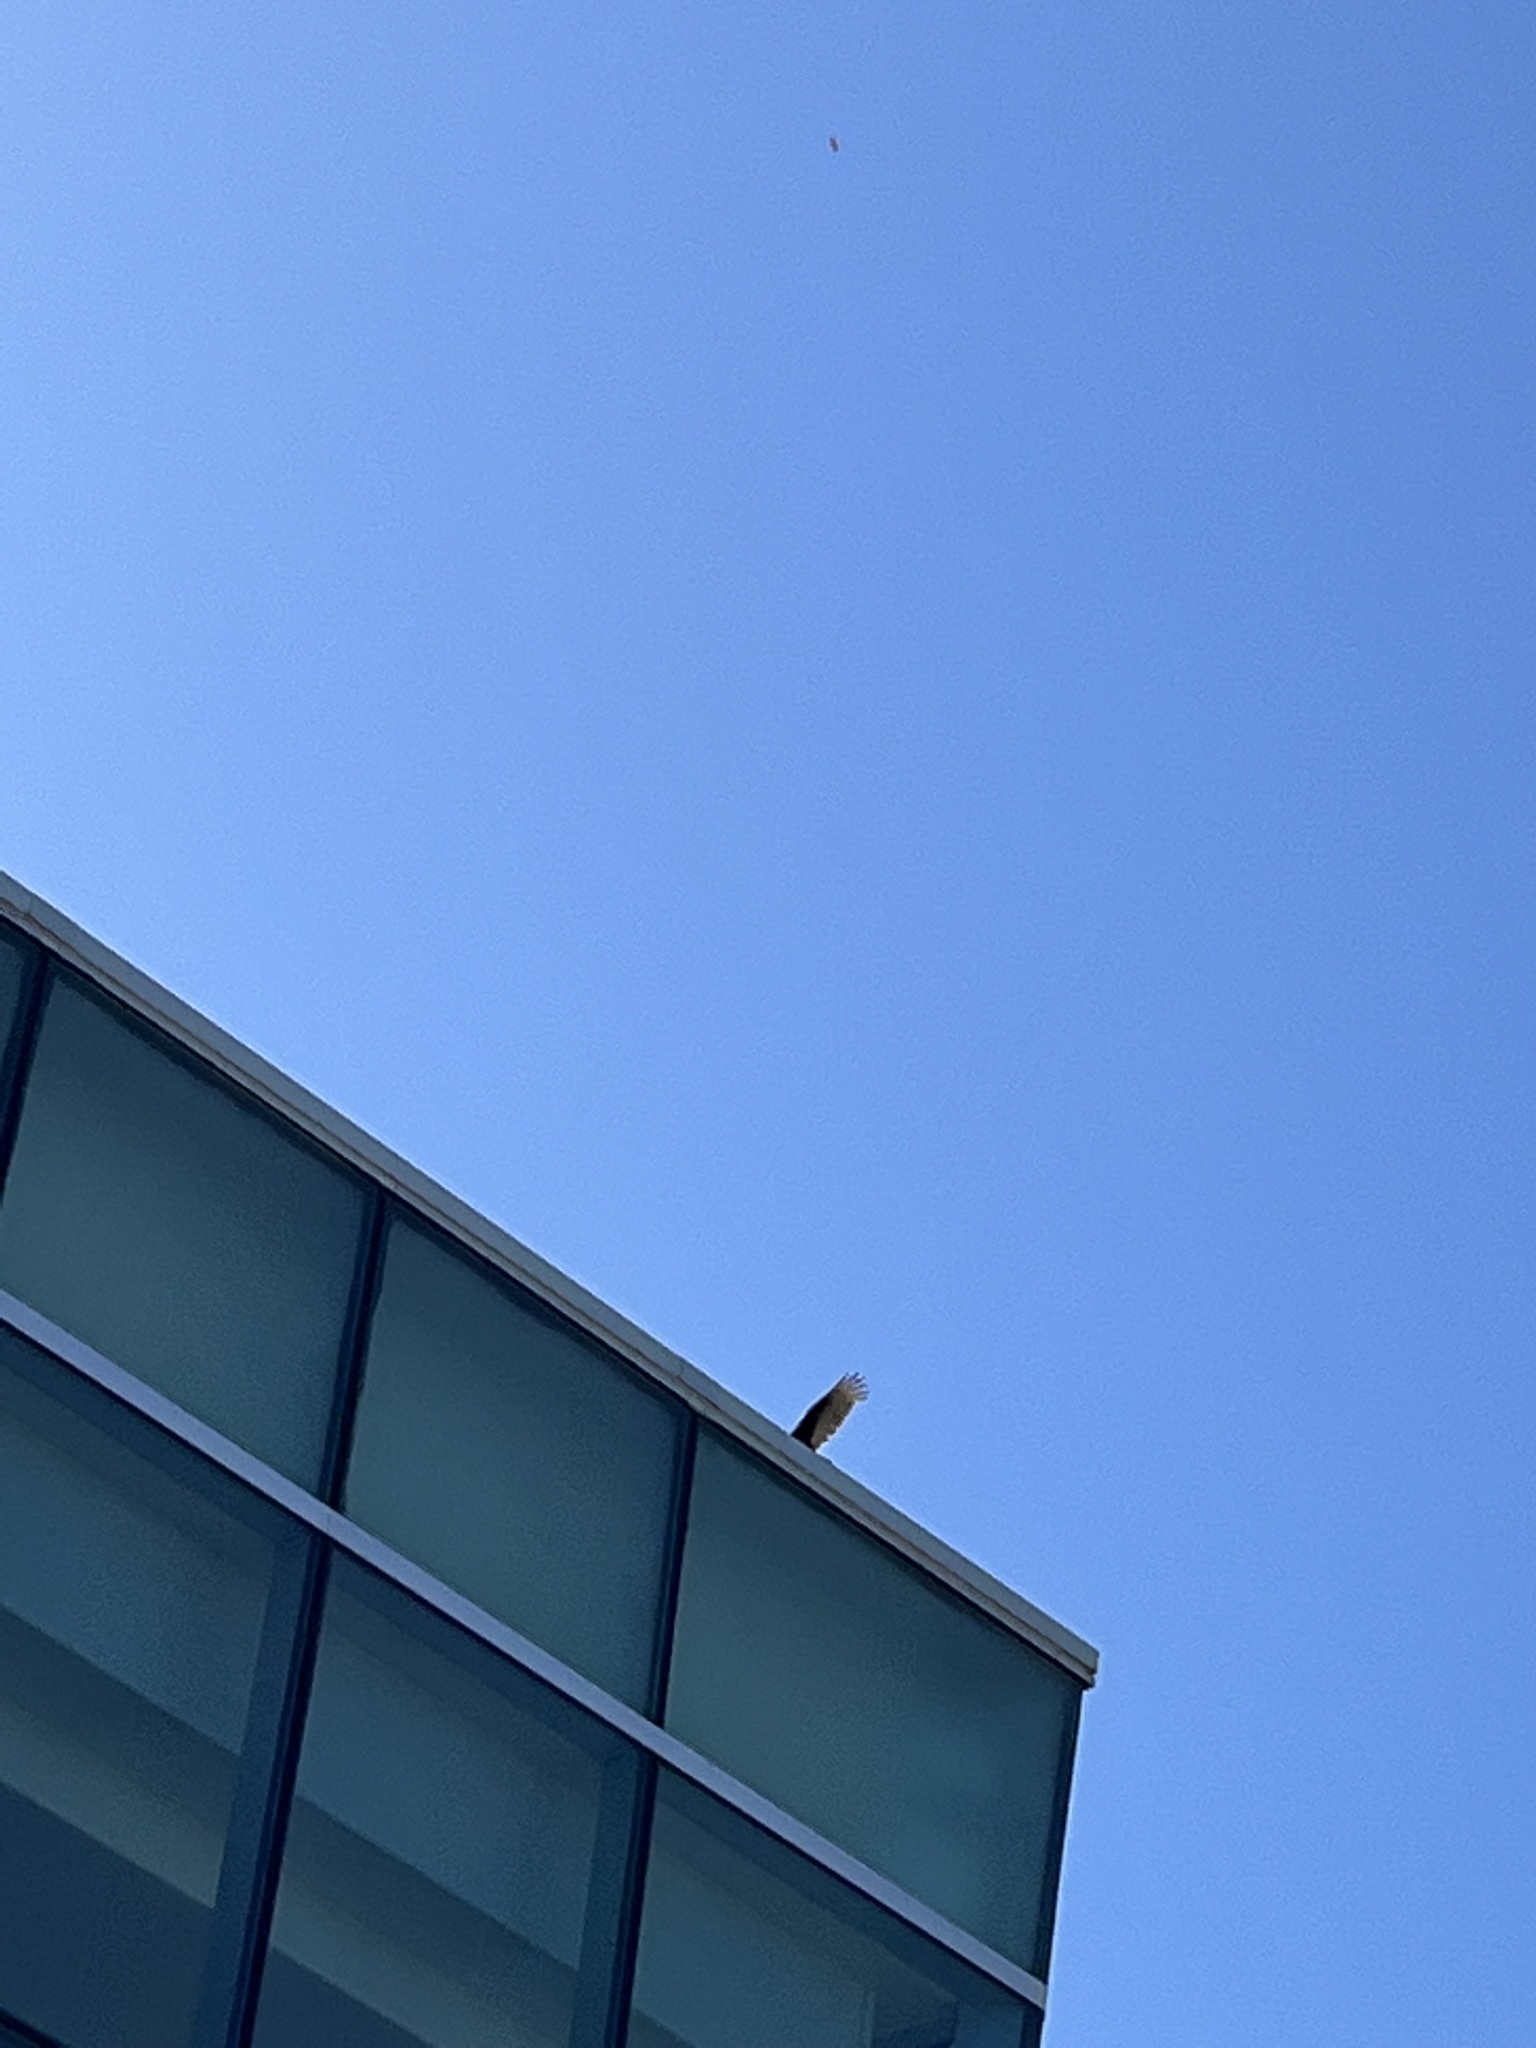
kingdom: Animalia
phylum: Chordata
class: Aves
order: Accipitriformes
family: Cathartidae
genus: Cathartes
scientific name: Cathartes aura
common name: Turkey vulture
